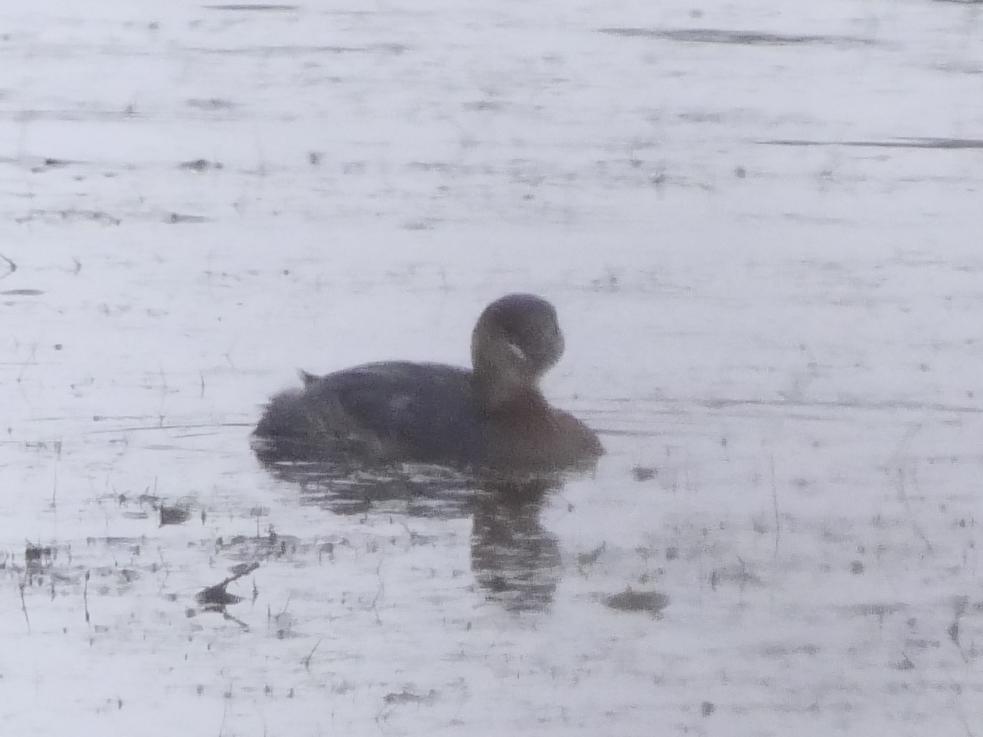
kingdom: Animalia
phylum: Chordata
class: Aves
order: Podicipediformes
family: Podicipedidae
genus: Podilymbus
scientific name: Podilymbus podiceps
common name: Pied-billed grebe
